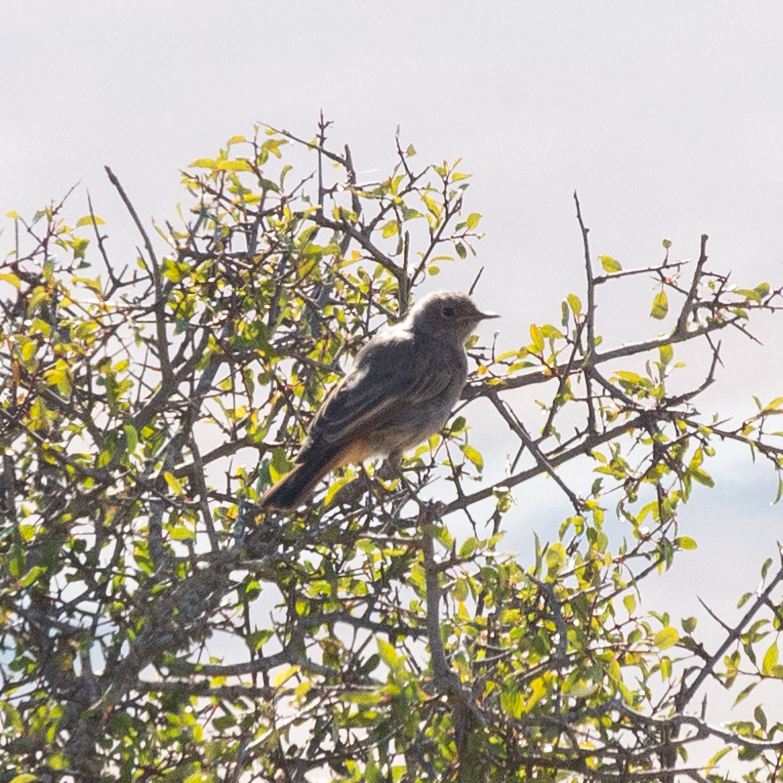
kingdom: Animalia
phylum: Chordata
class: Aves
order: Passeriformes
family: Muscicapidae
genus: Phoenicurus
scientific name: Phoenicurus ochruros
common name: Black redstart
